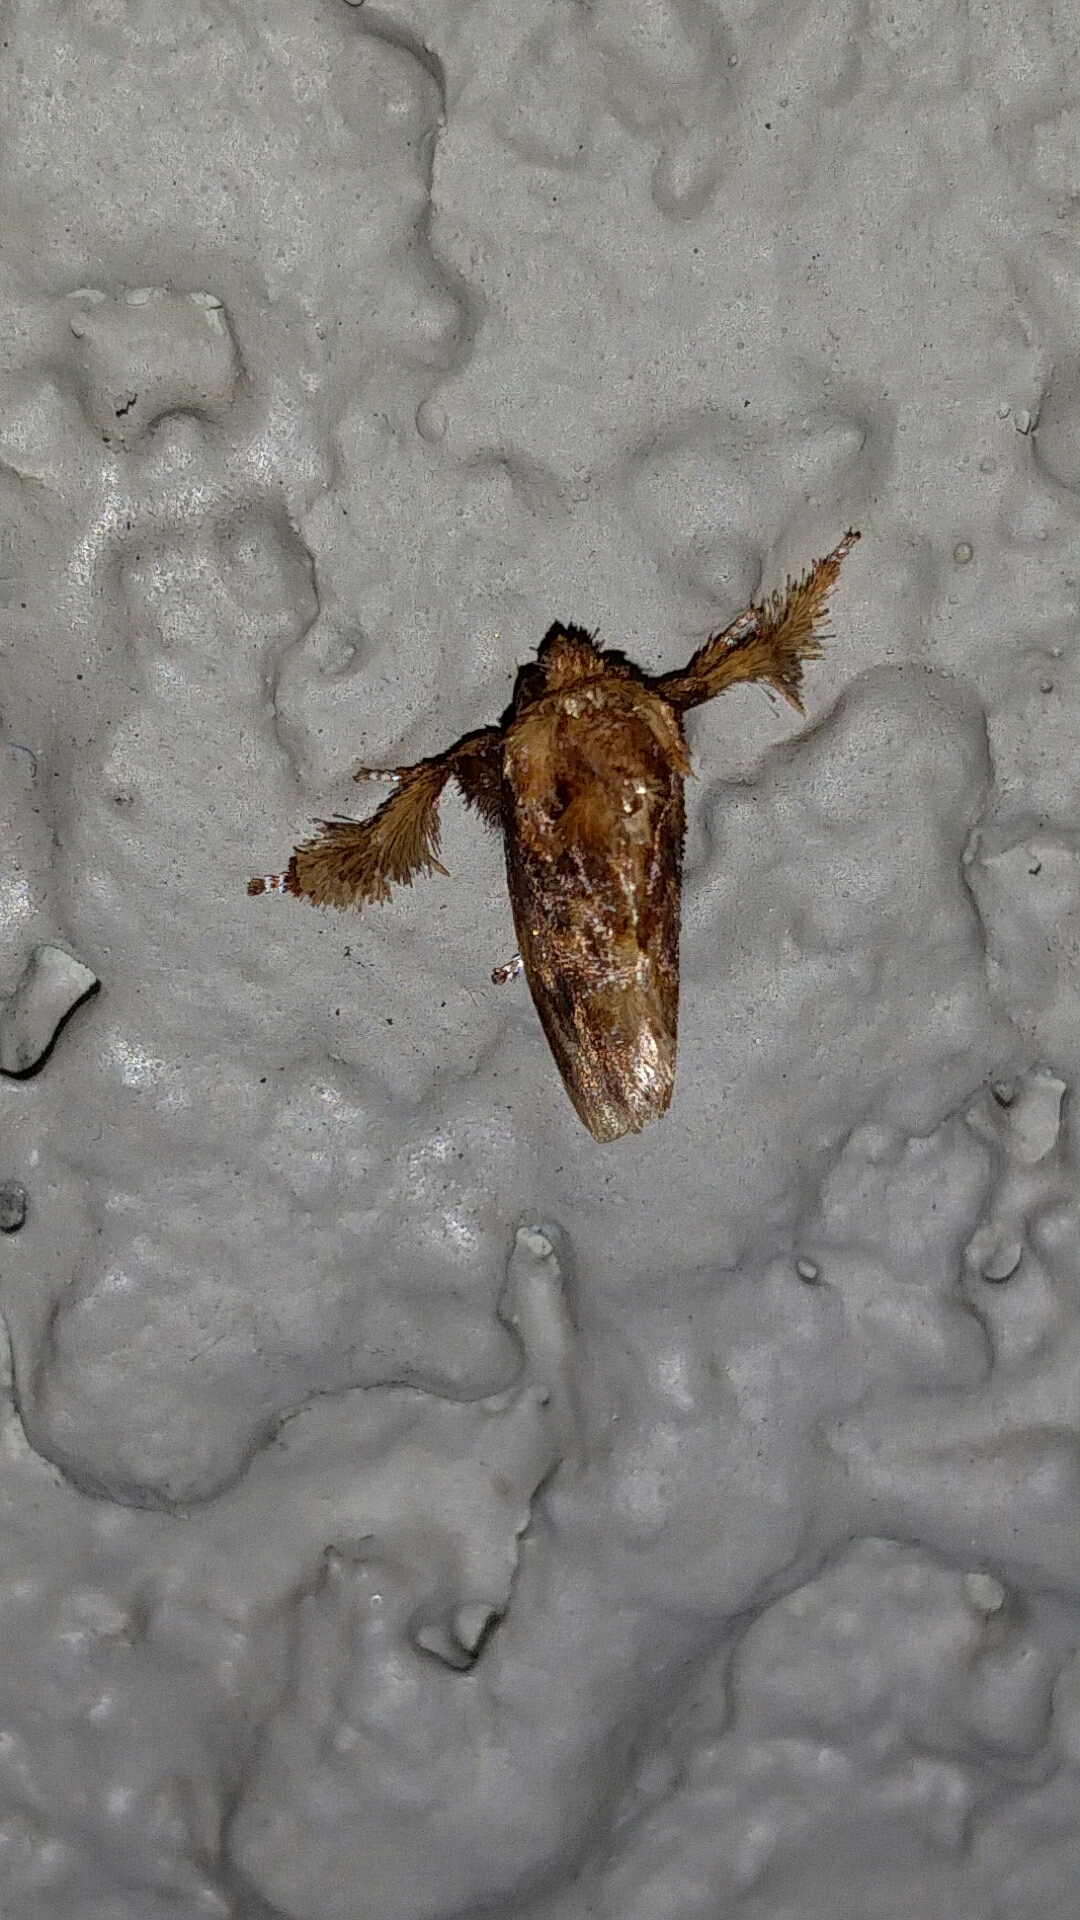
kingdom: Animalia
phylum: Arthropoda
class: Insecta
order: Lepidoptera
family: Limacodidae
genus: Isochaetes
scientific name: Isochaetes beutenmuelleri
